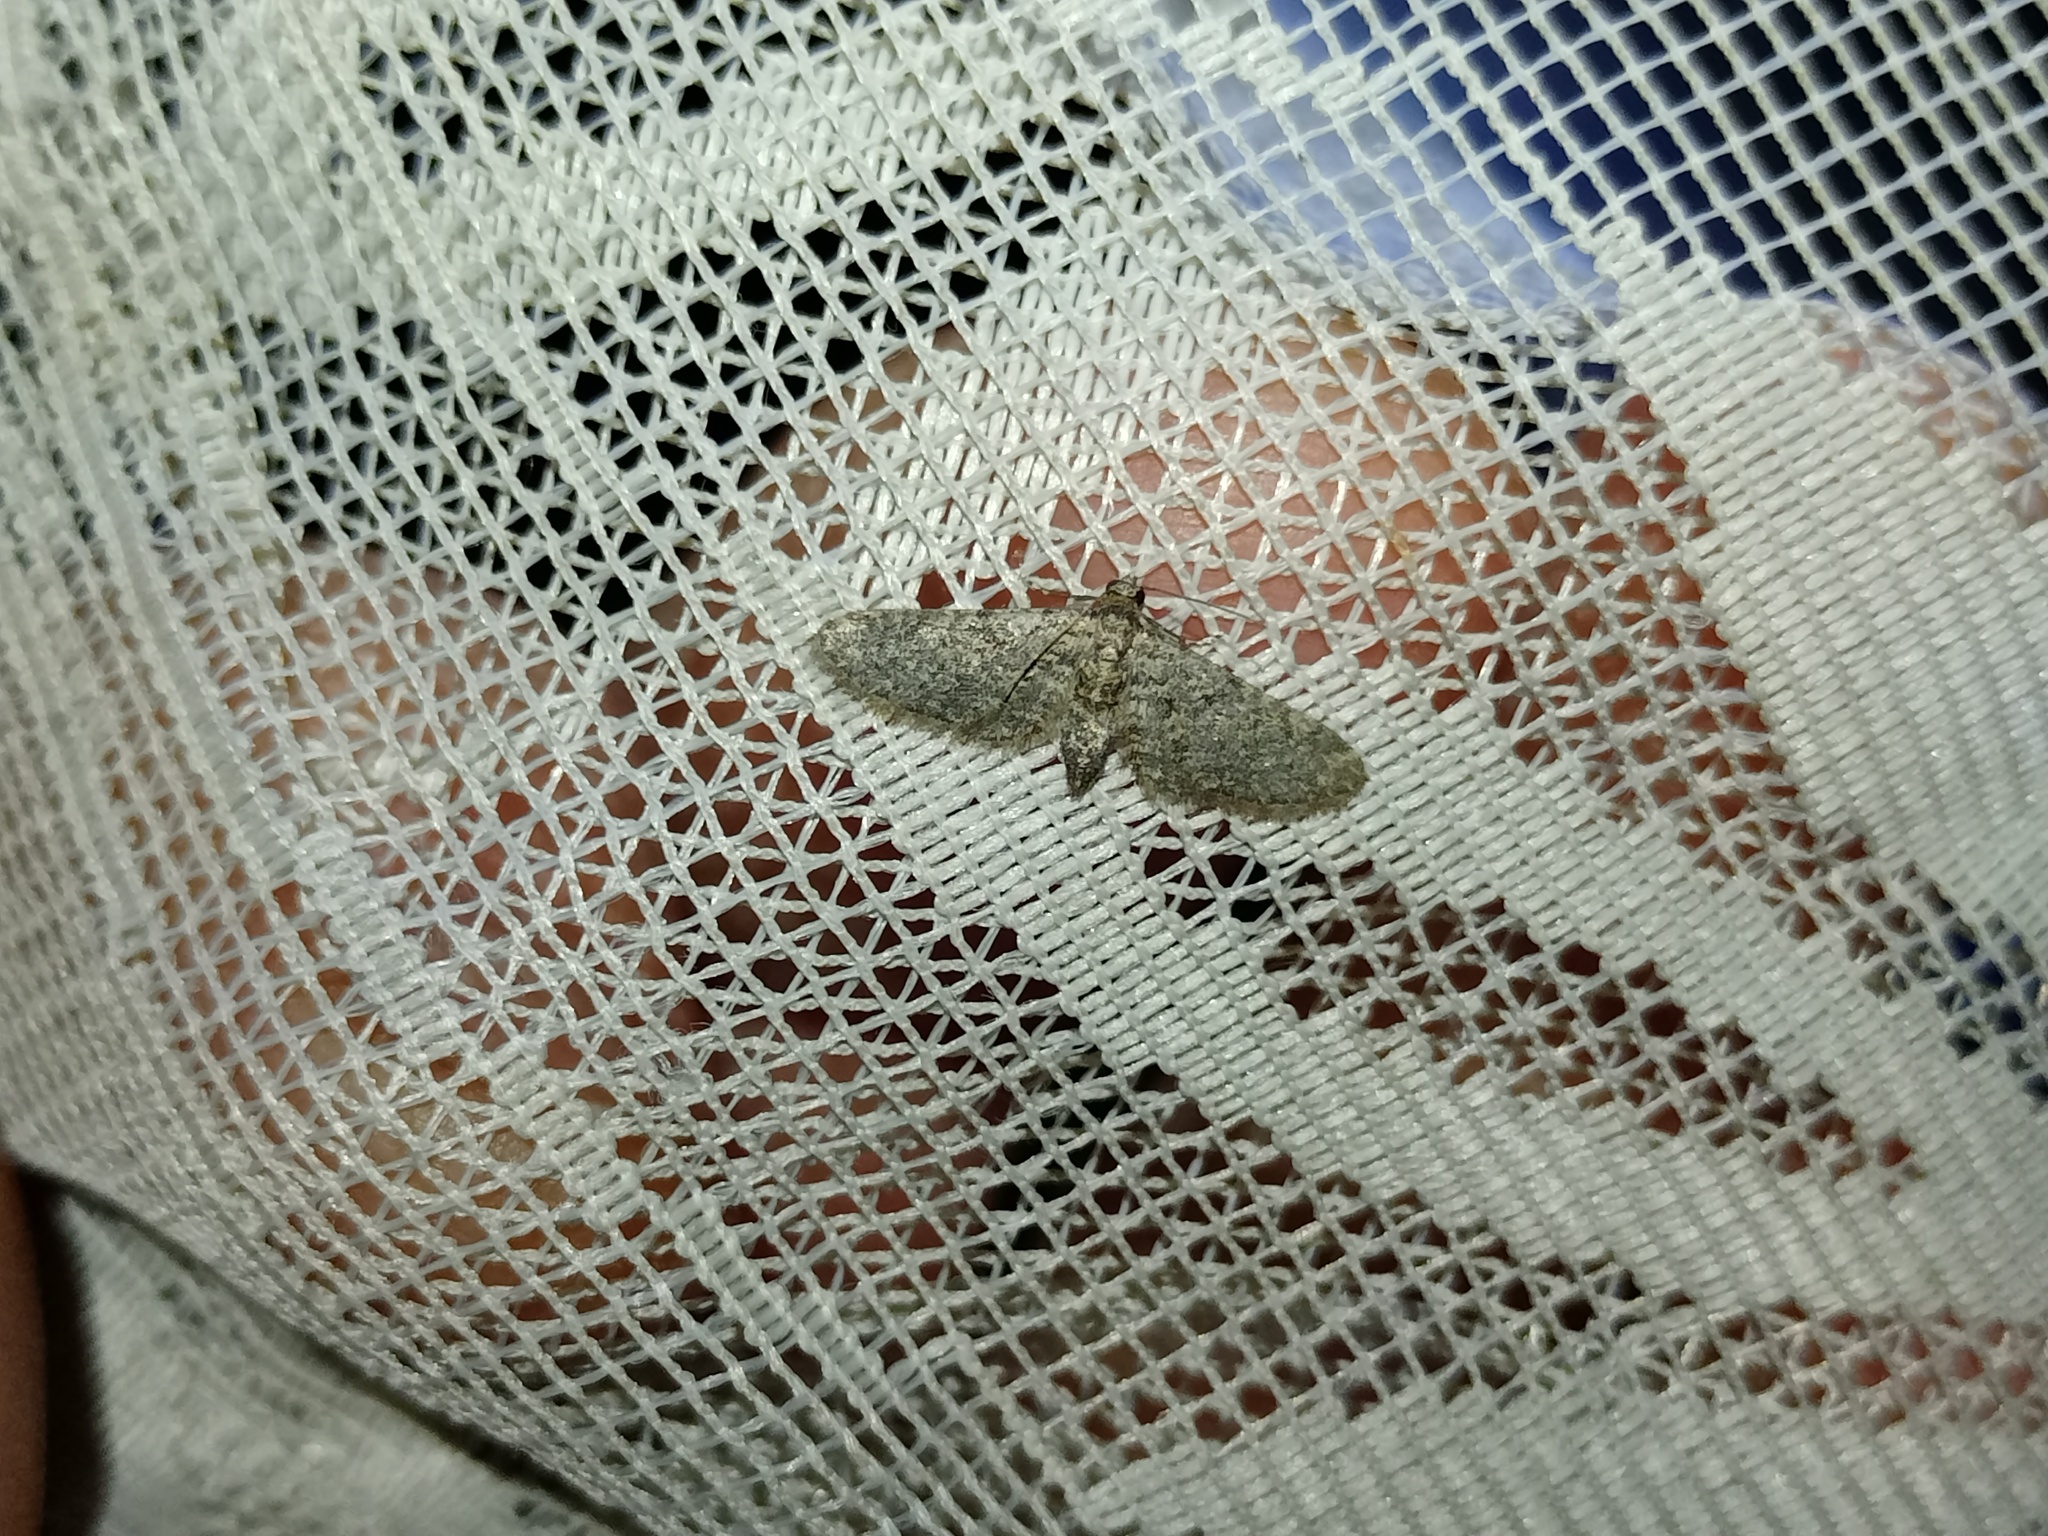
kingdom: Animalia
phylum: Arthropoda
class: Insecta
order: Lepidoptera
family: Geometridae
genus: Eupithecia
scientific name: Eupithecia maspalomae
